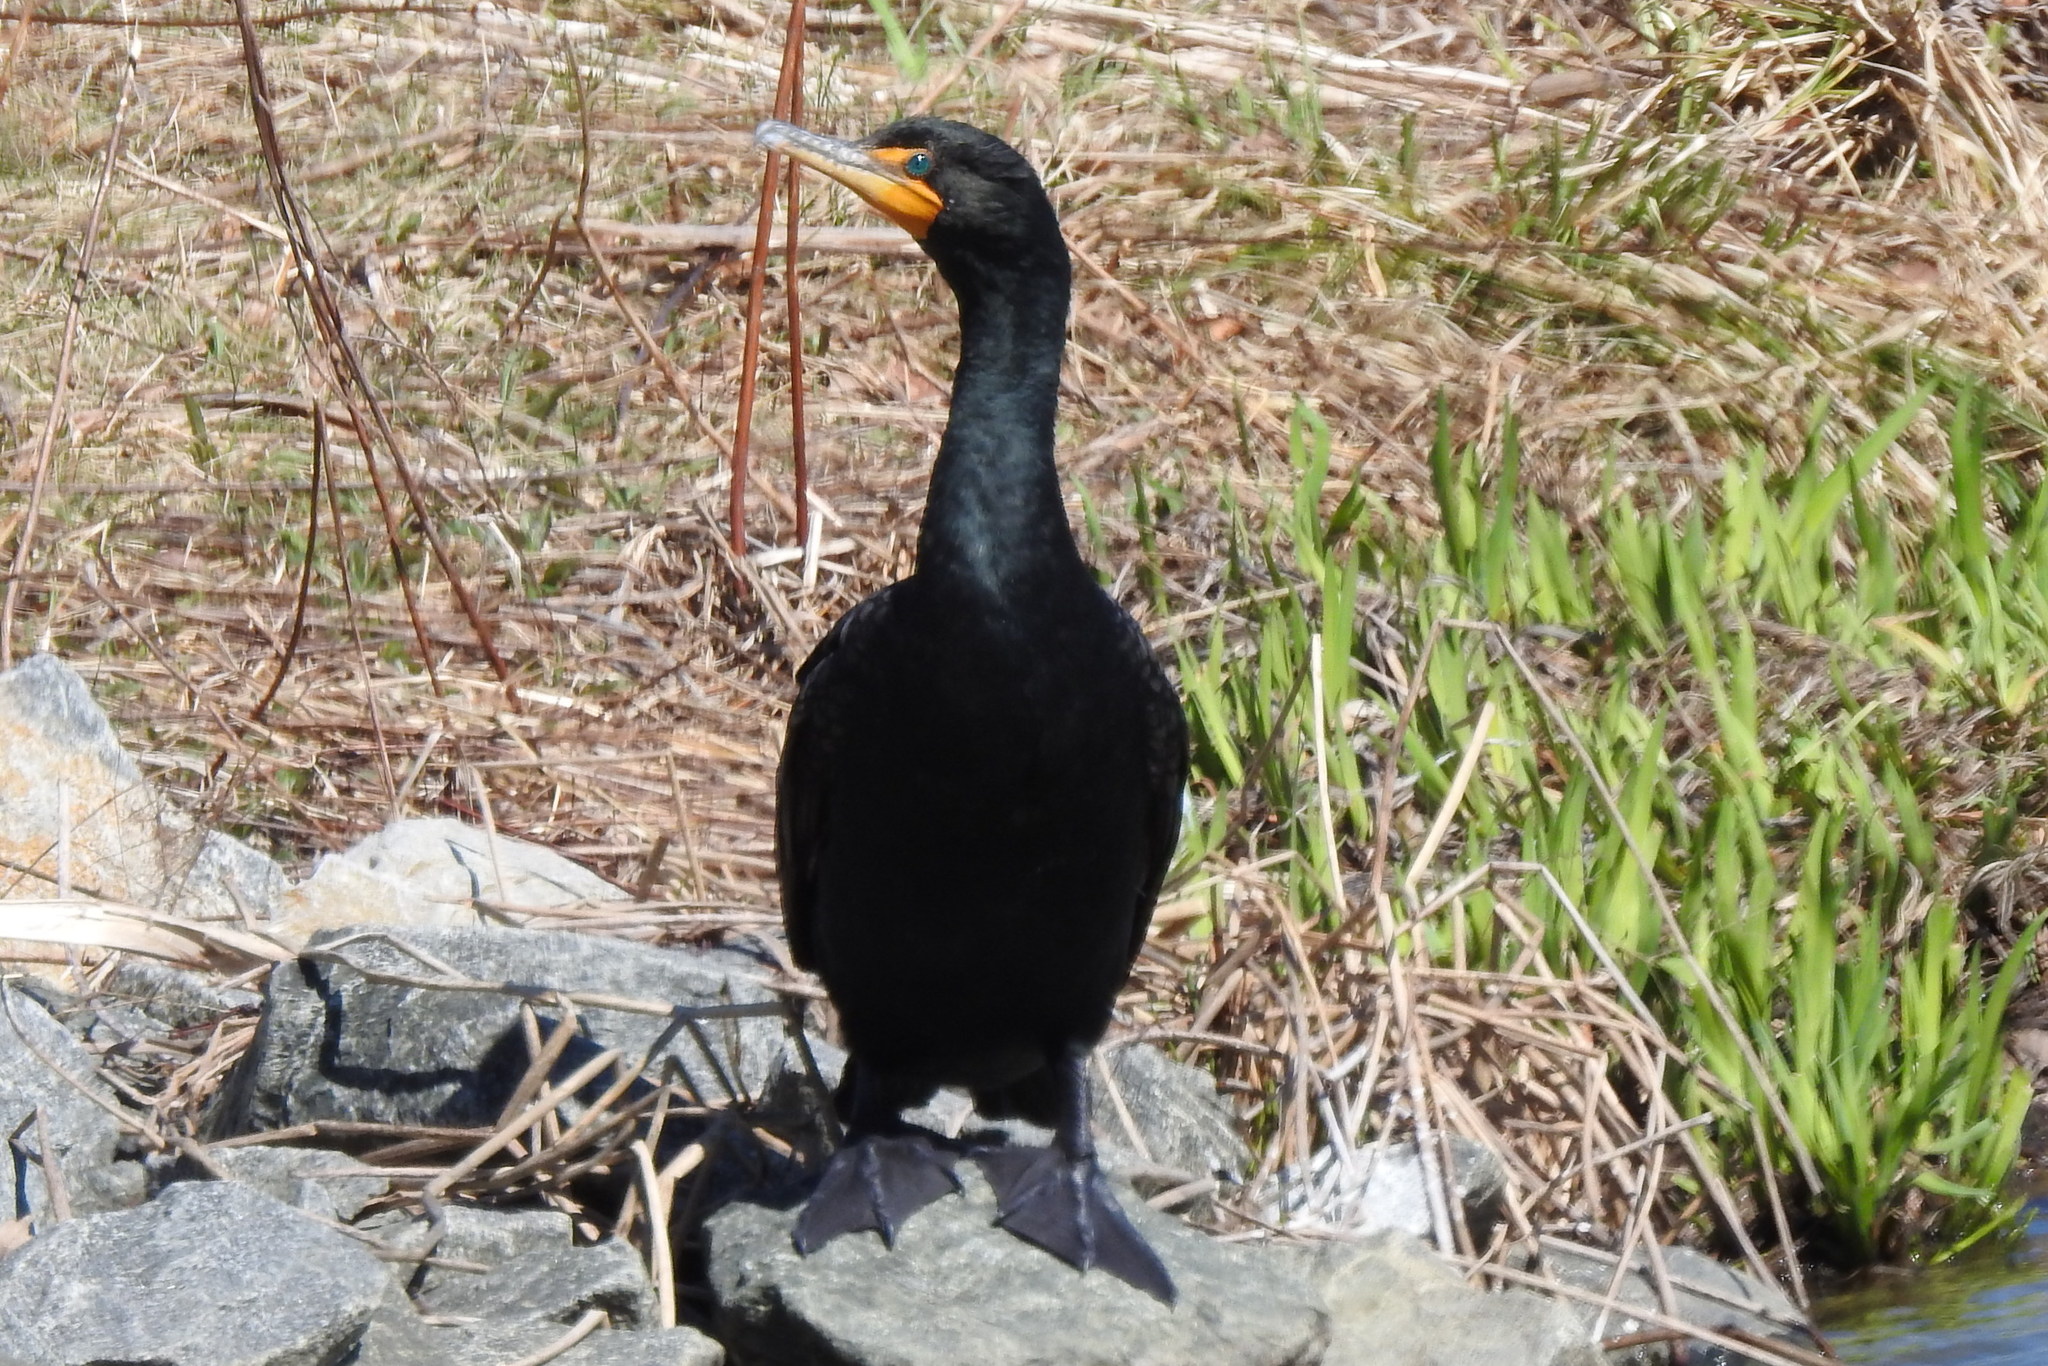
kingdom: Animalia
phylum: Chordata
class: Aves
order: Suliformes
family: Phalacrocoracidae
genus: Phalacrocorax
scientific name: Phalacrocorax auritus
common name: Double-crested cormorant
